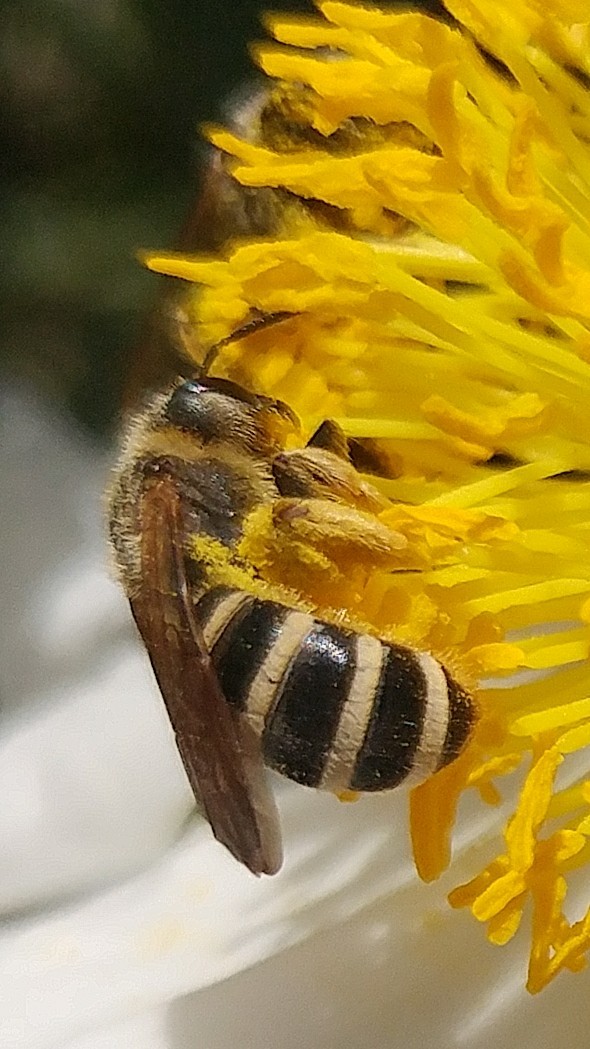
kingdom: Animalia
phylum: Arthropoda
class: Insecta
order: Hymenoptera
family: Halictidae
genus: Halictus
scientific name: Halictus farinosus
